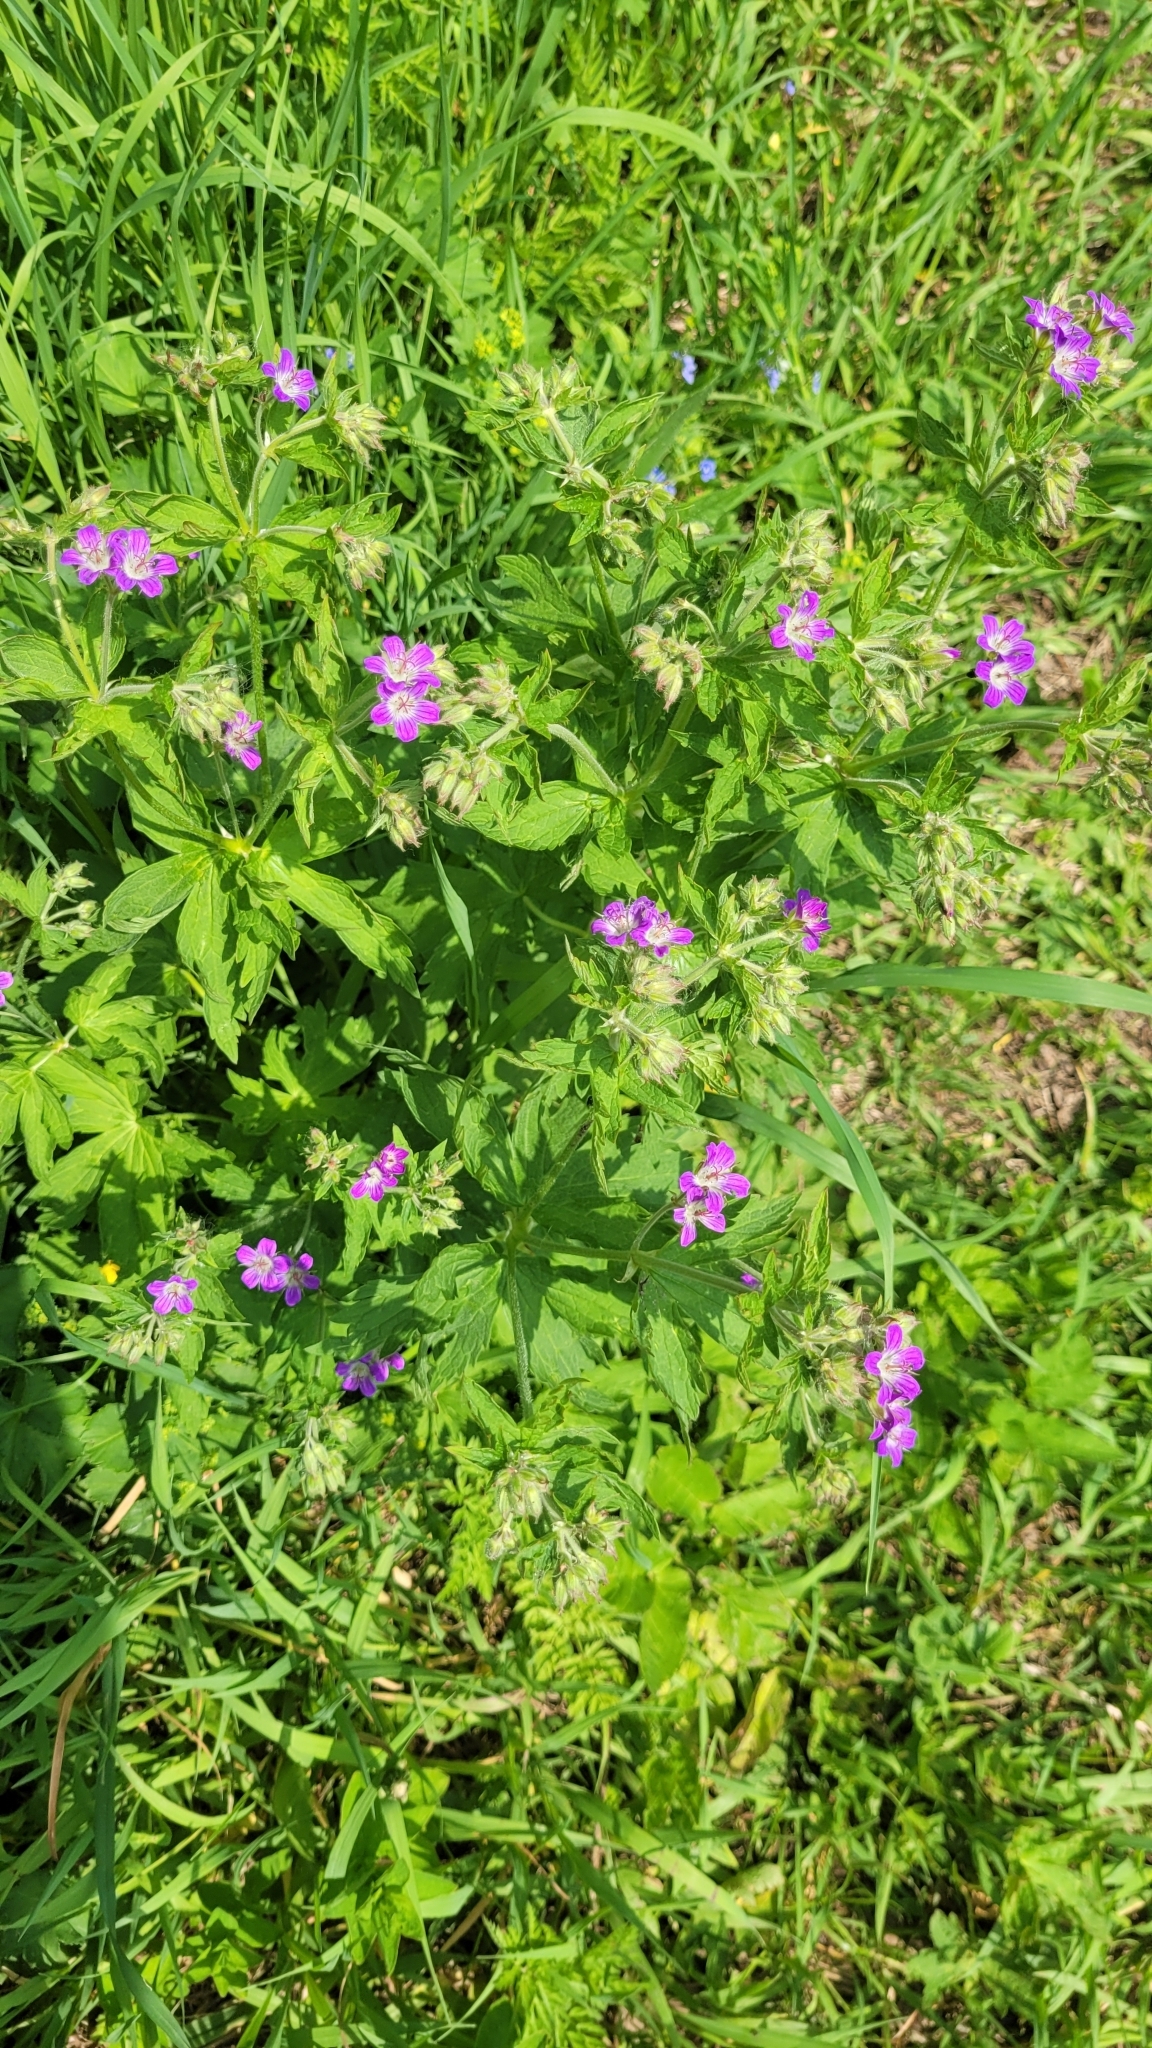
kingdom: Plantae
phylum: Tracheophyta
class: Magnoliopsida
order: Geraniales
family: Geraniaceae
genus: Geranium
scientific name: Geranium sylvaticum
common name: Wood crane's-bill
